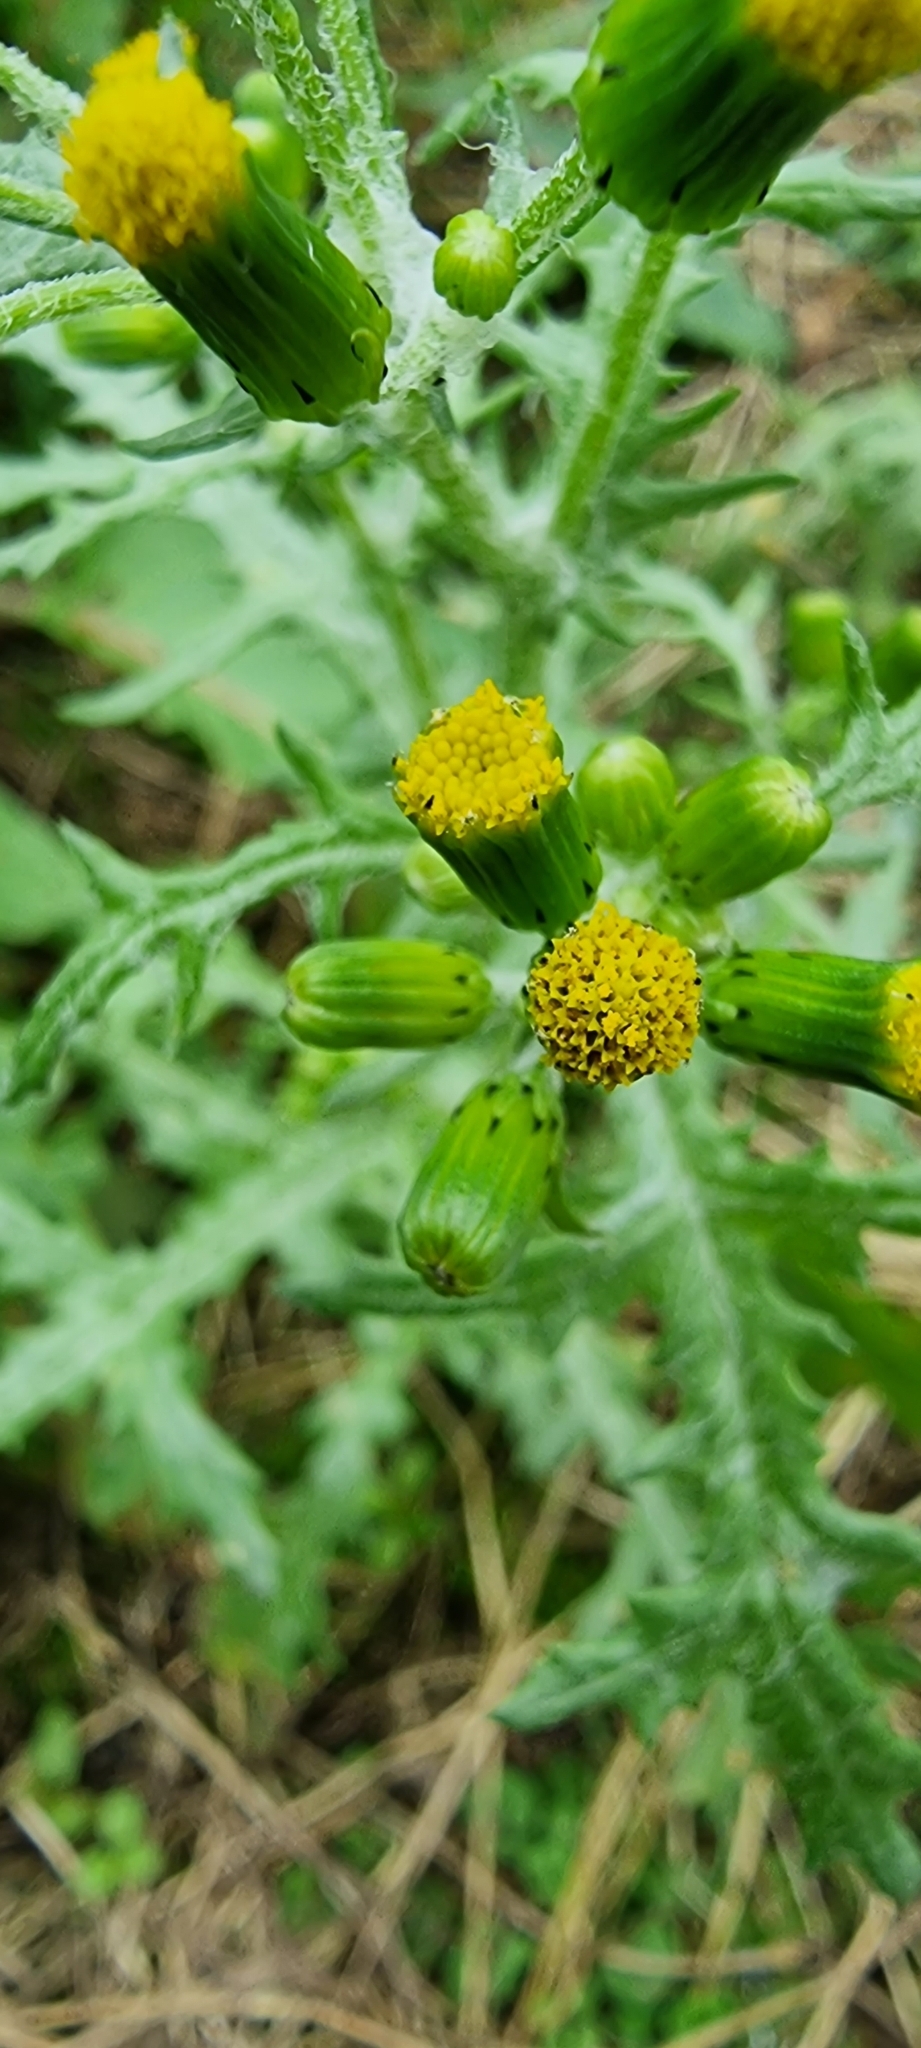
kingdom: Fungi
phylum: Basidiomycota
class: Pucciniomycetes
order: Pucciniales
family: Pucciniaceae
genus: Puccinia
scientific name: Puccinia lagenophorae
